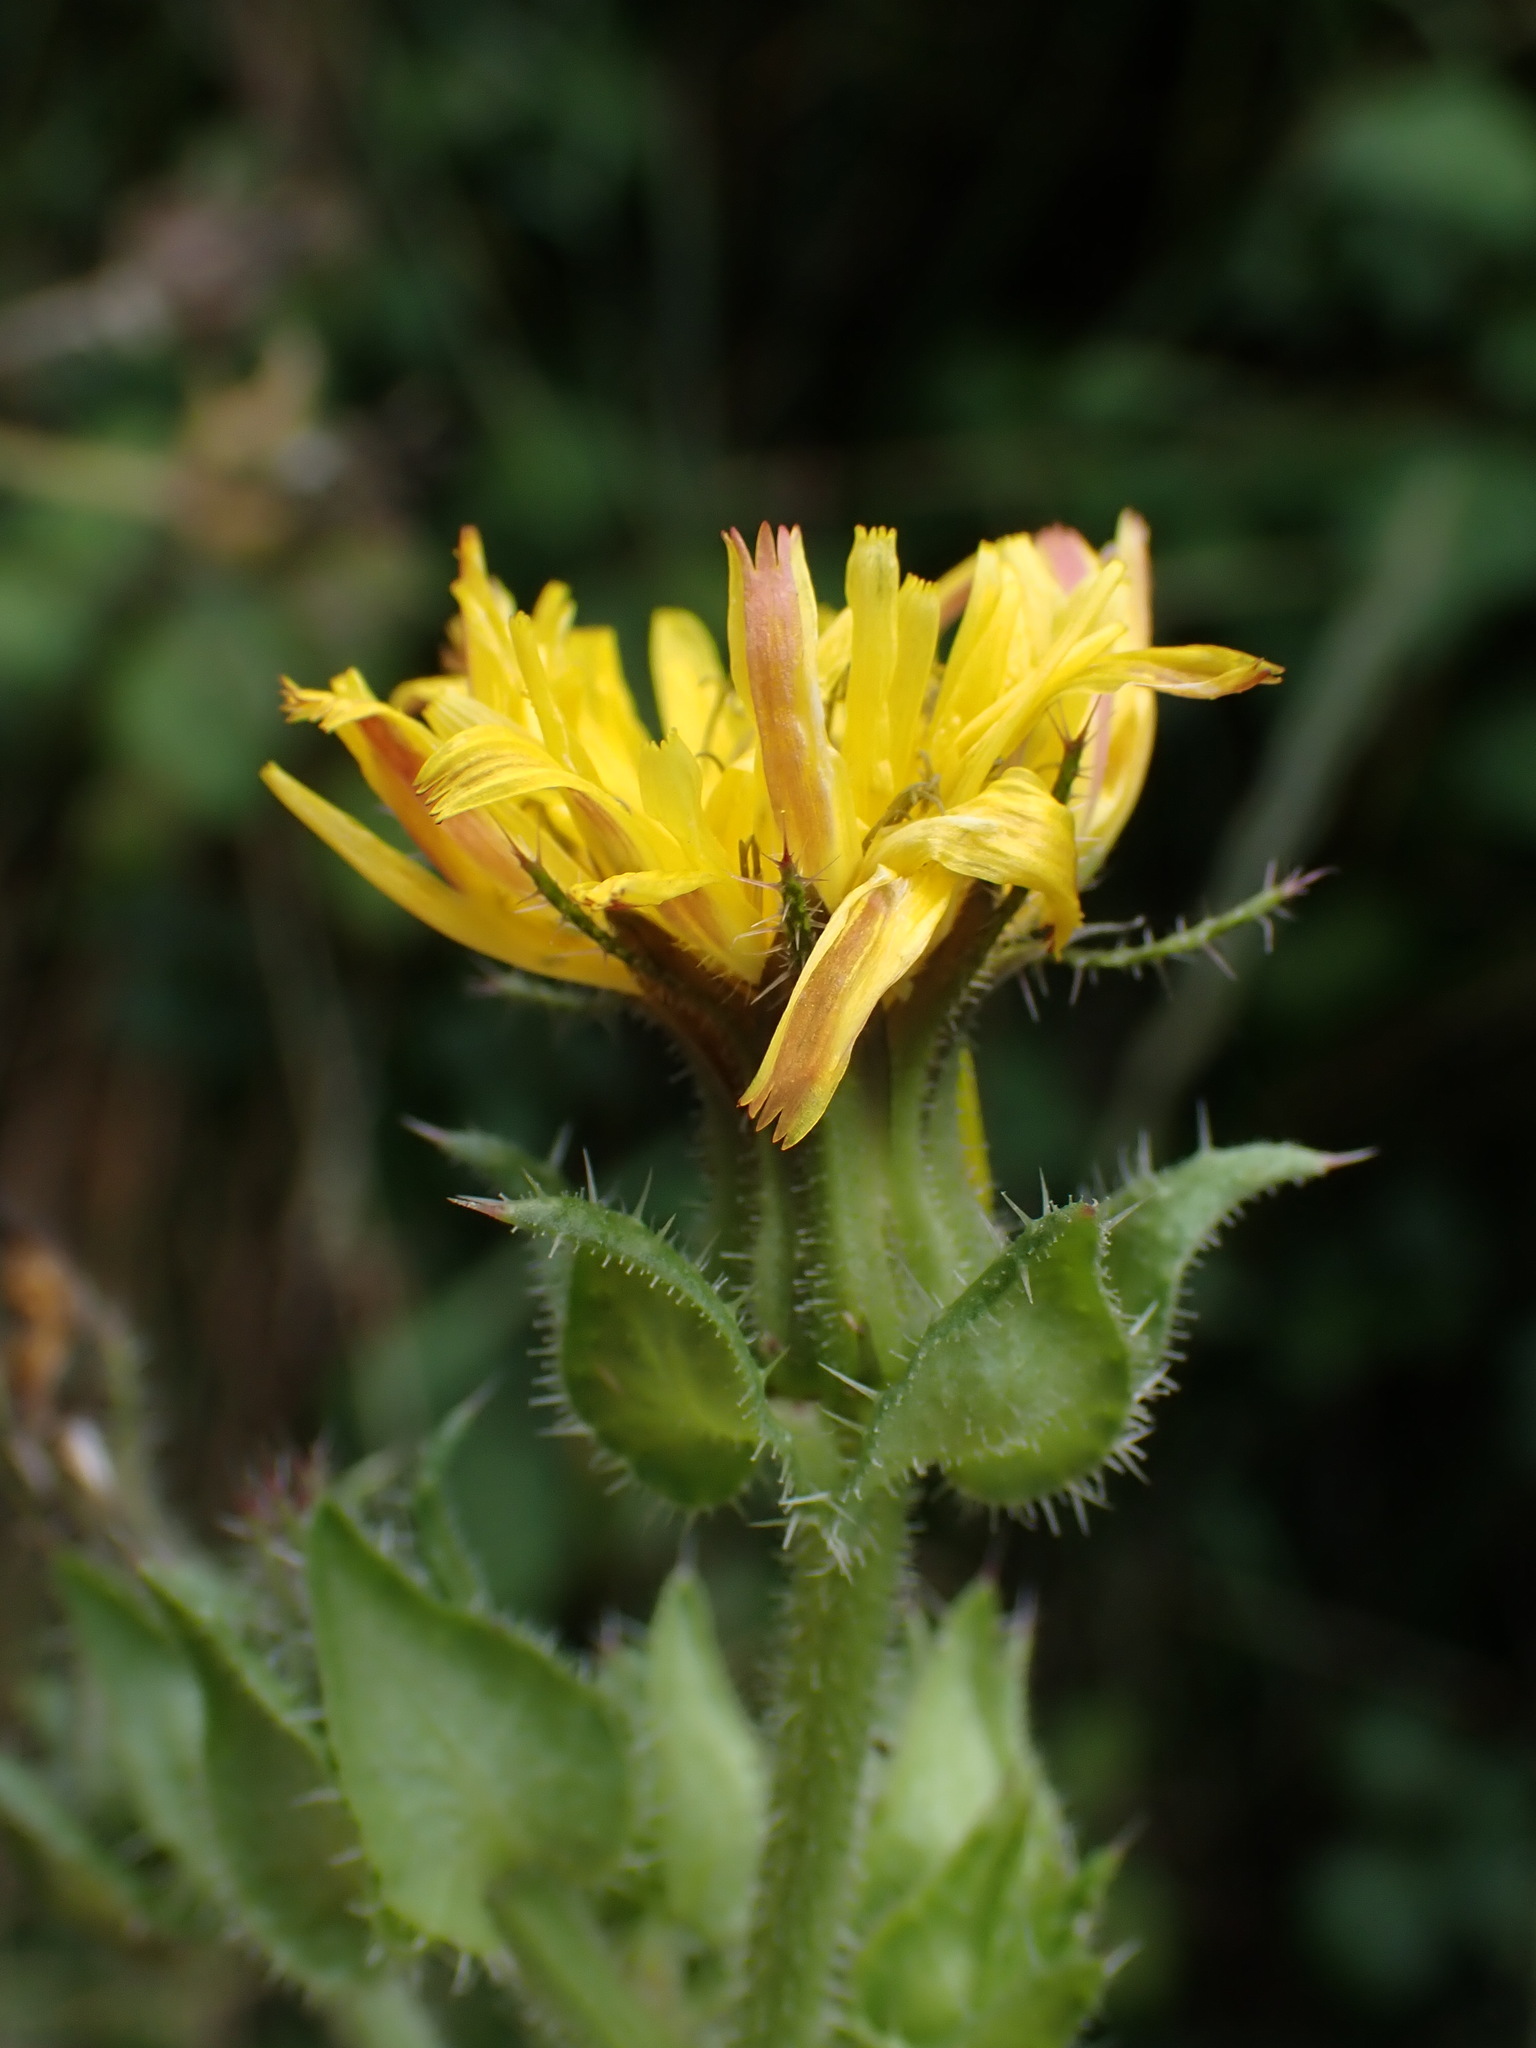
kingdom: Plantae
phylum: Tracheophyta
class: Magnoliopsida
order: Asterales
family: Asteraceae
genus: Helminthotheca
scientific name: Helminthotheca echioides
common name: Ox-tongue
